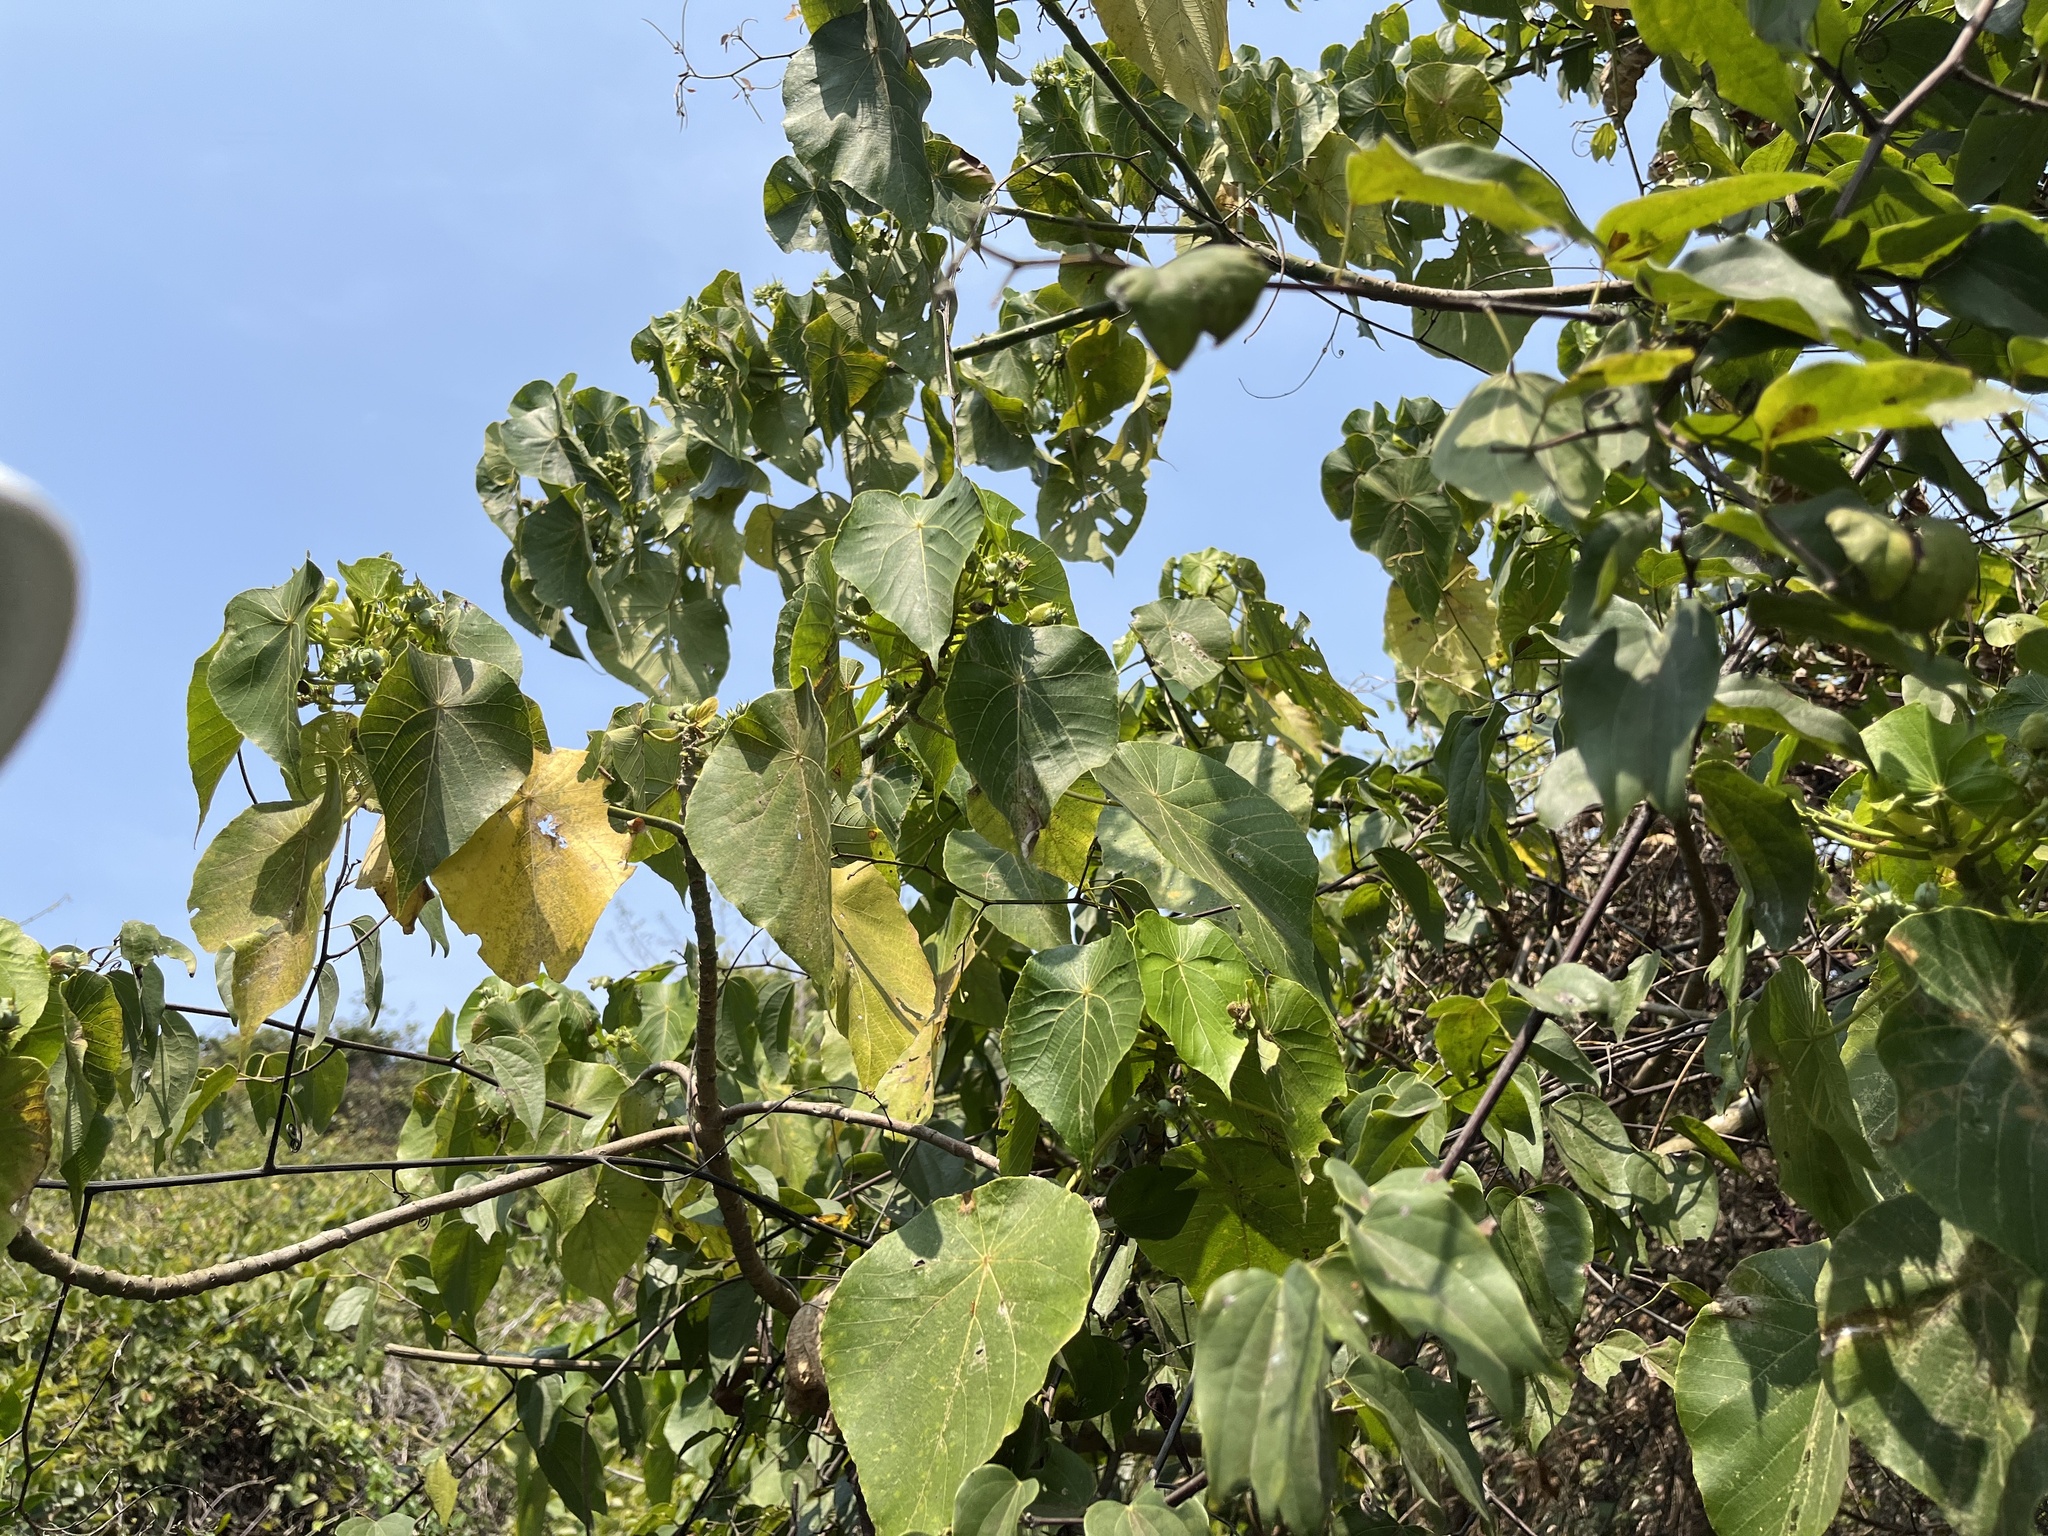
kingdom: Plantae
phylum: Tracheophyta
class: Magnoliopsida
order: Malpighiales
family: Euphorbiaceae
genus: Macaranga
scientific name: Macaranga tanarius
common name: Parasol leaf tree
